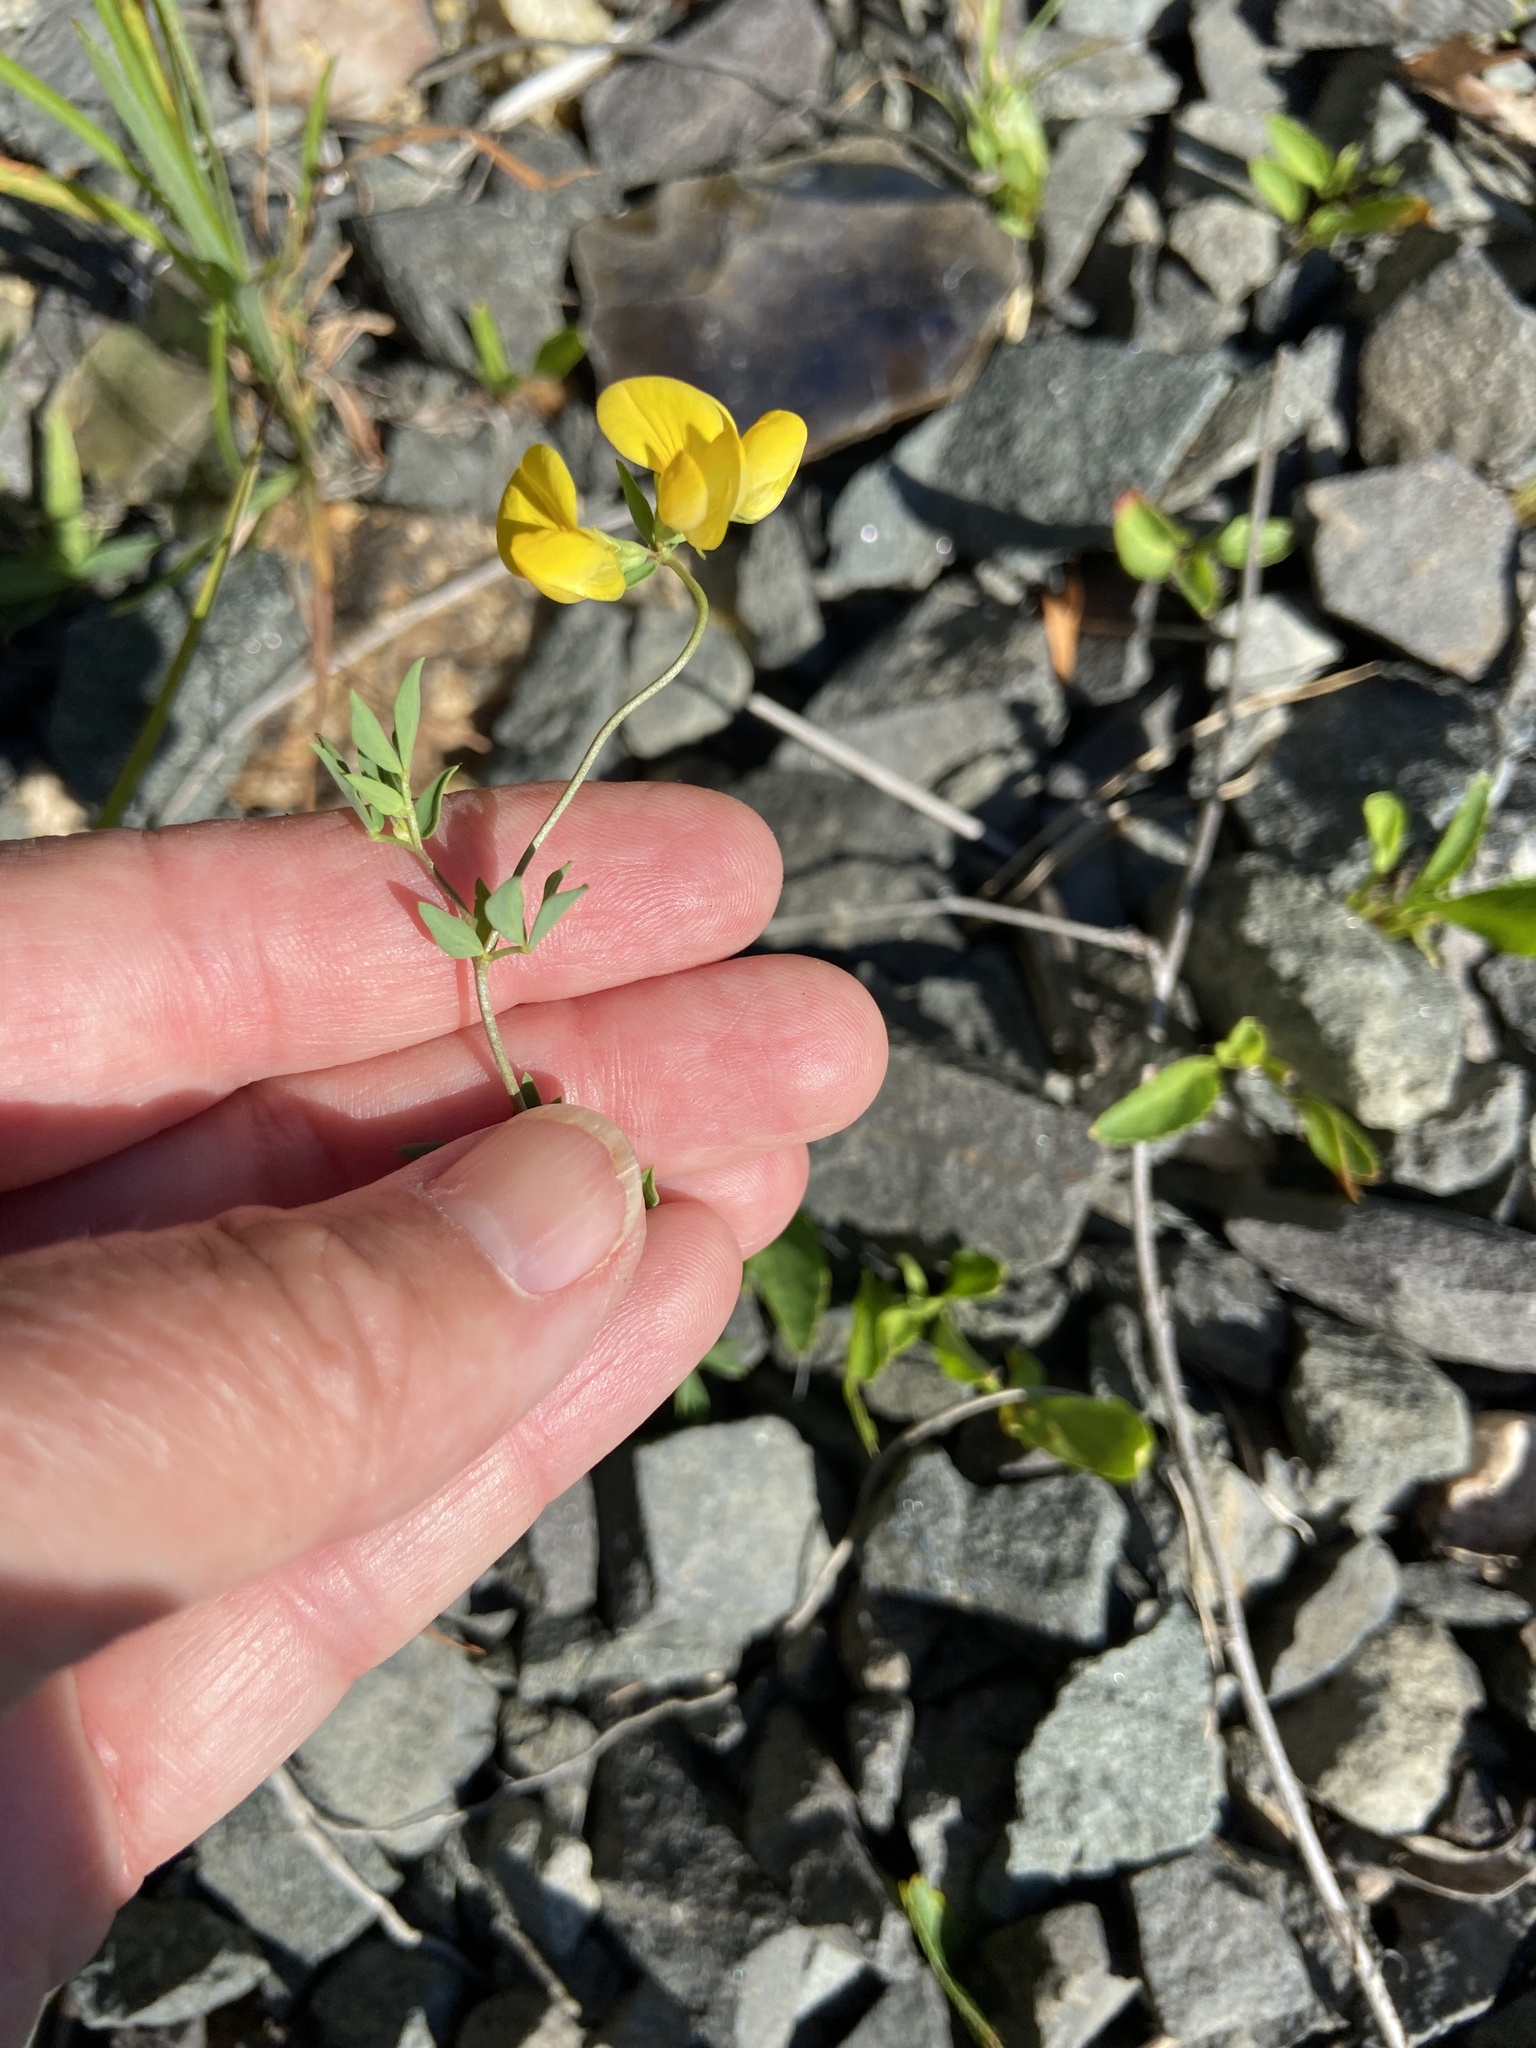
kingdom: Plantae
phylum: Tracheophyta
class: Magnoliopsida
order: Fabales
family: Fabaceae
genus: Lotus
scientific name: Lotus corniculatus
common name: Common bird's-foot-trefoil
